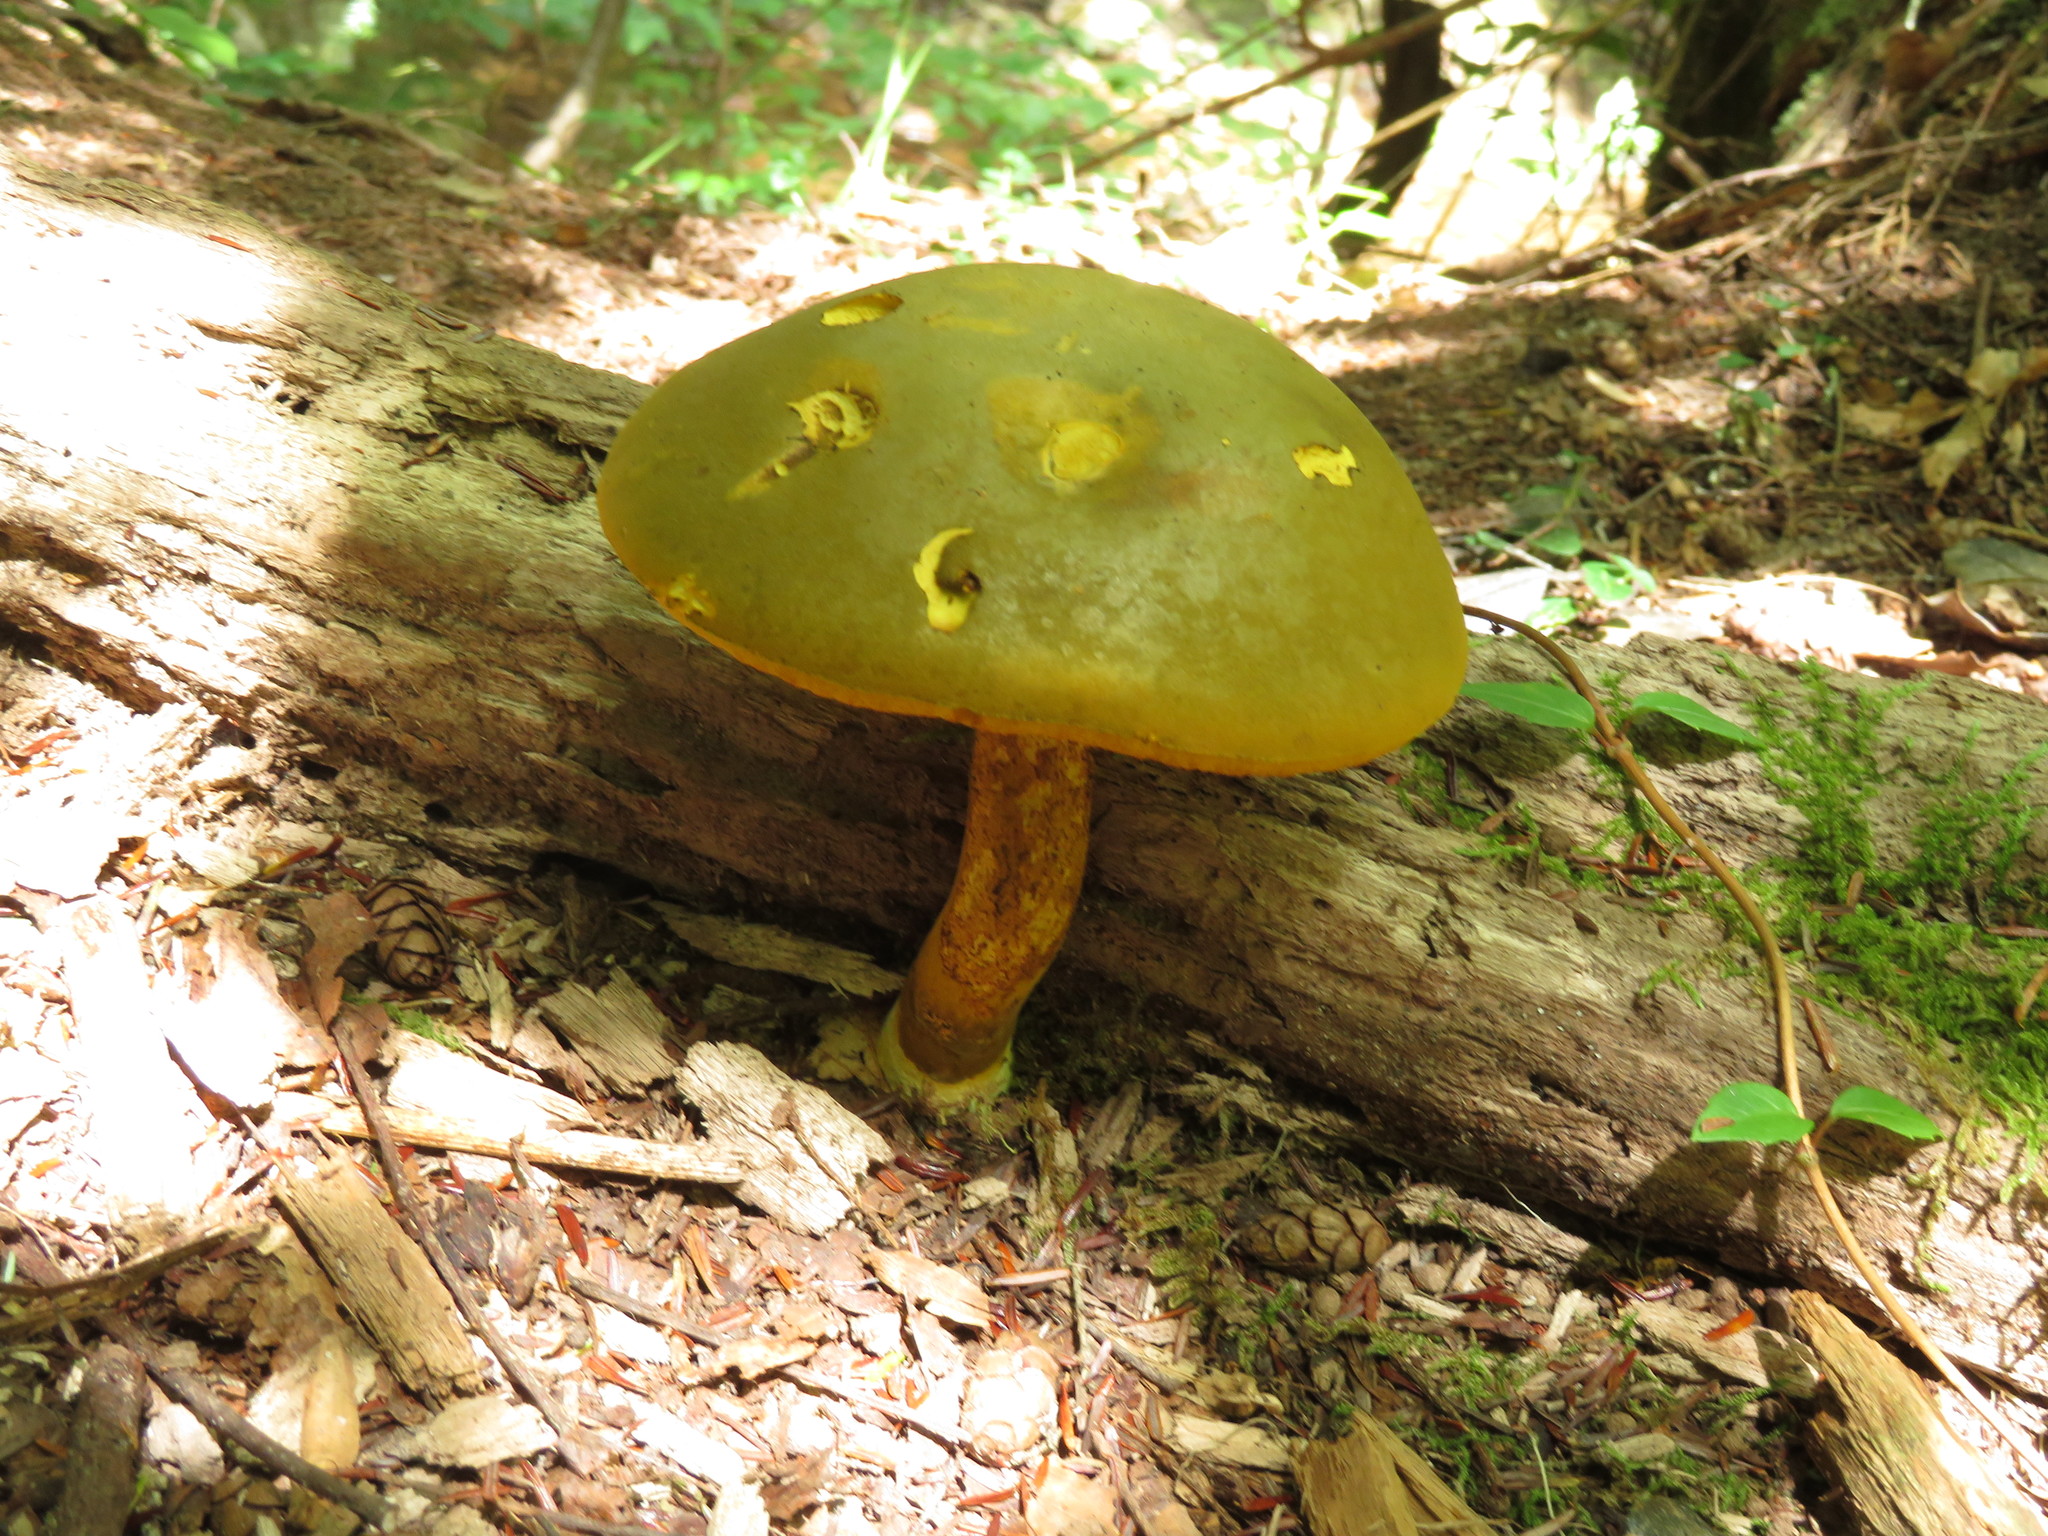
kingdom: Fungi
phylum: Basidiomycota
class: Agaricomycetes
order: Boletales
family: Boletaceae
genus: Retiboletus
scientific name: Retiboletus ornatipes
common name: Ornate-stalked bolete
